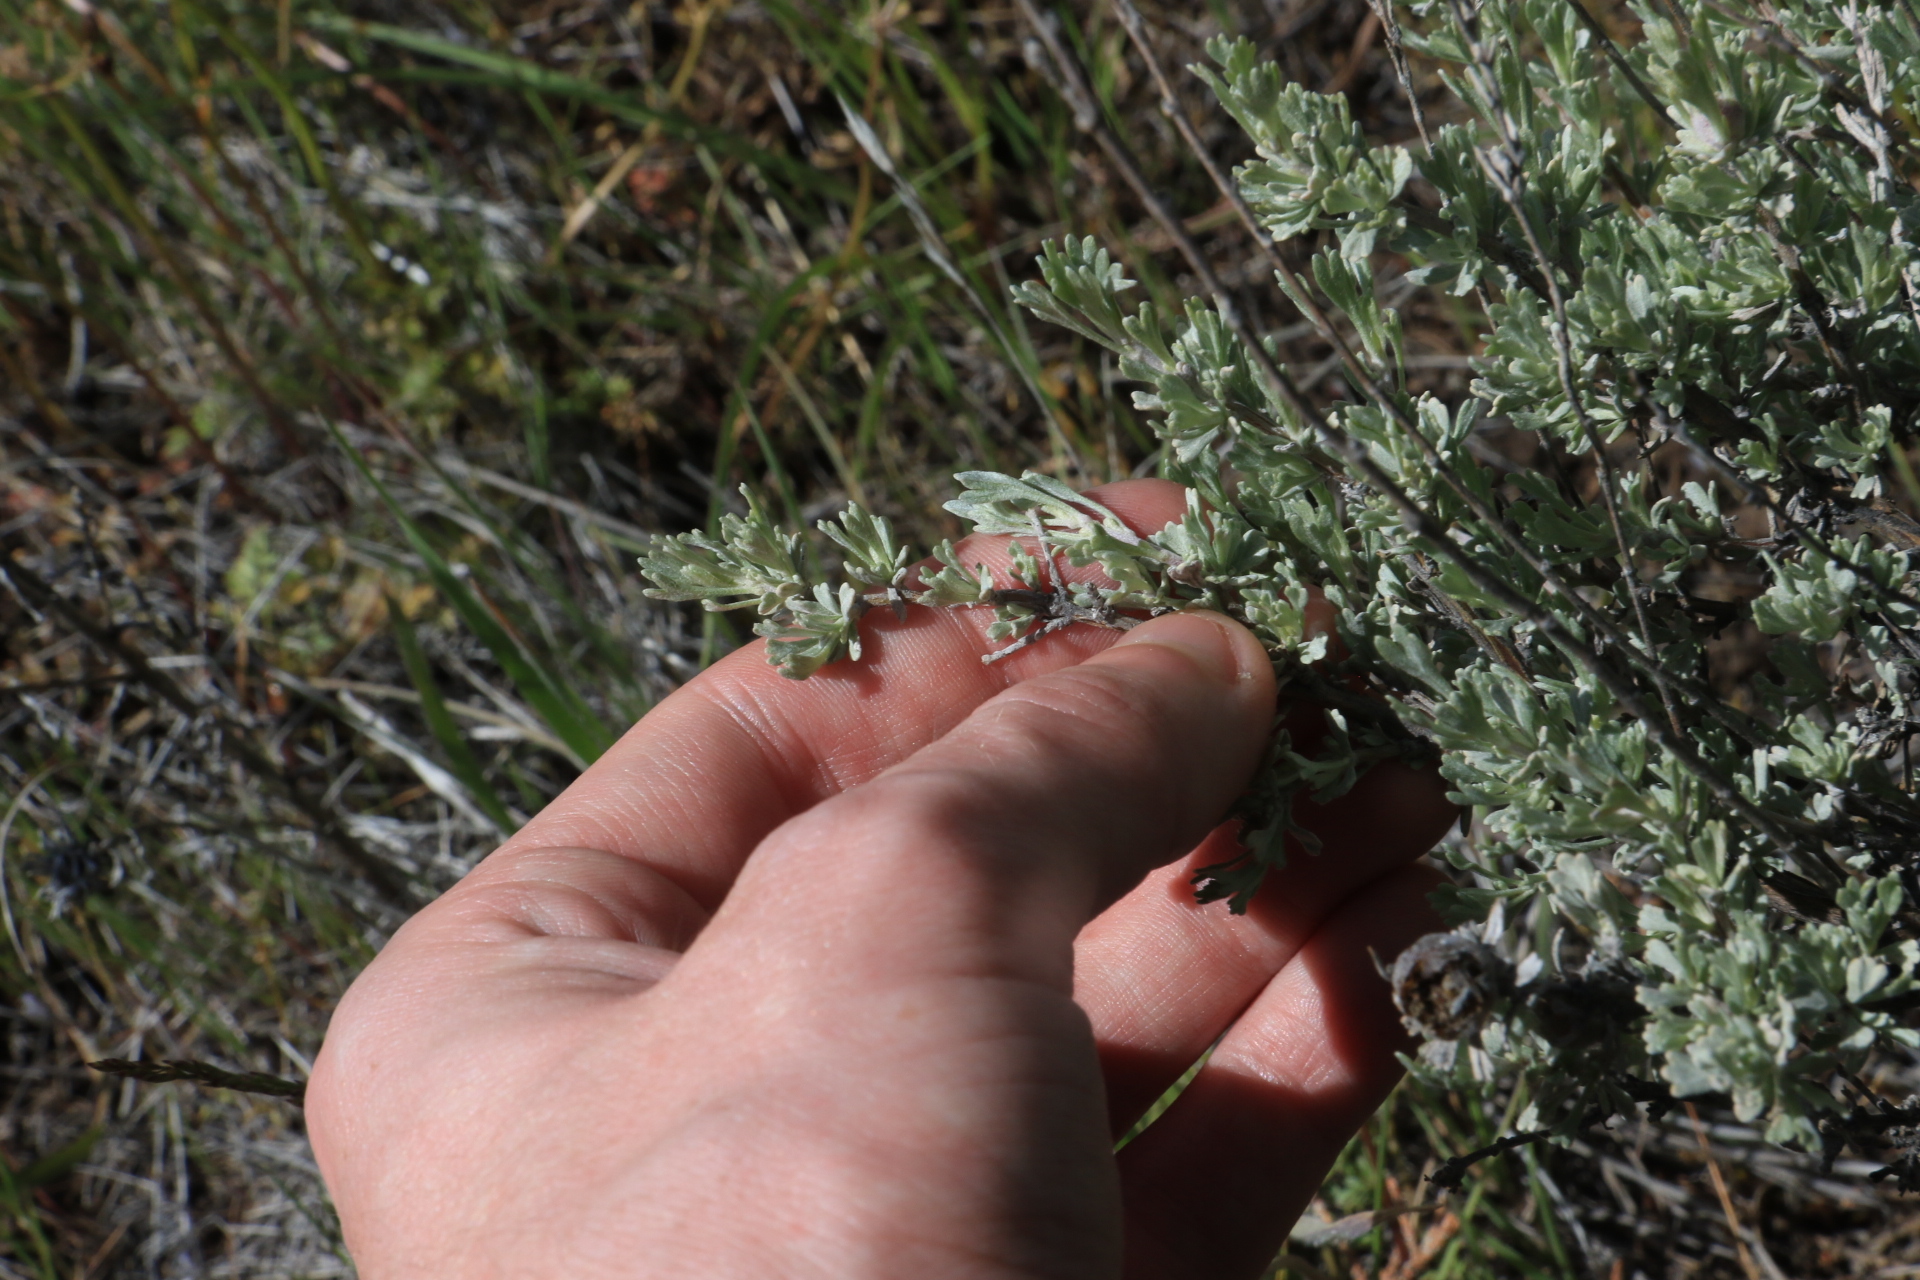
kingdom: Plantae
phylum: Tracheophyta
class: Magnoliopsida
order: Asterales
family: Asteraceae
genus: Artemisia
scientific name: Artemisia arbuscula
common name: Sagebrush
